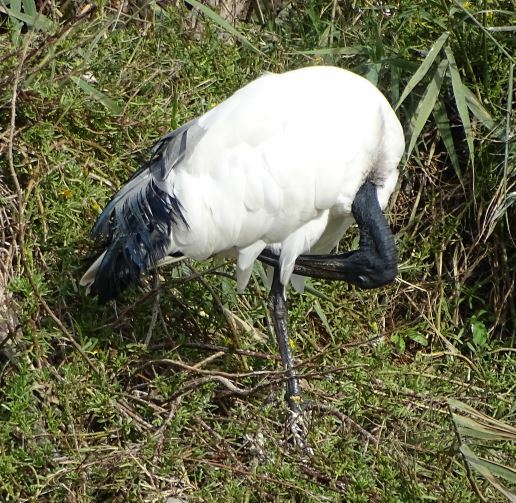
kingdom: Animalia
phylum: Chordata
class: Aves
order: Pelecaniformes
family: Threskiornithidae
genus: Threskiornis
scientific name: Threskiornis aethiopicus
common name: Sacred ibis
